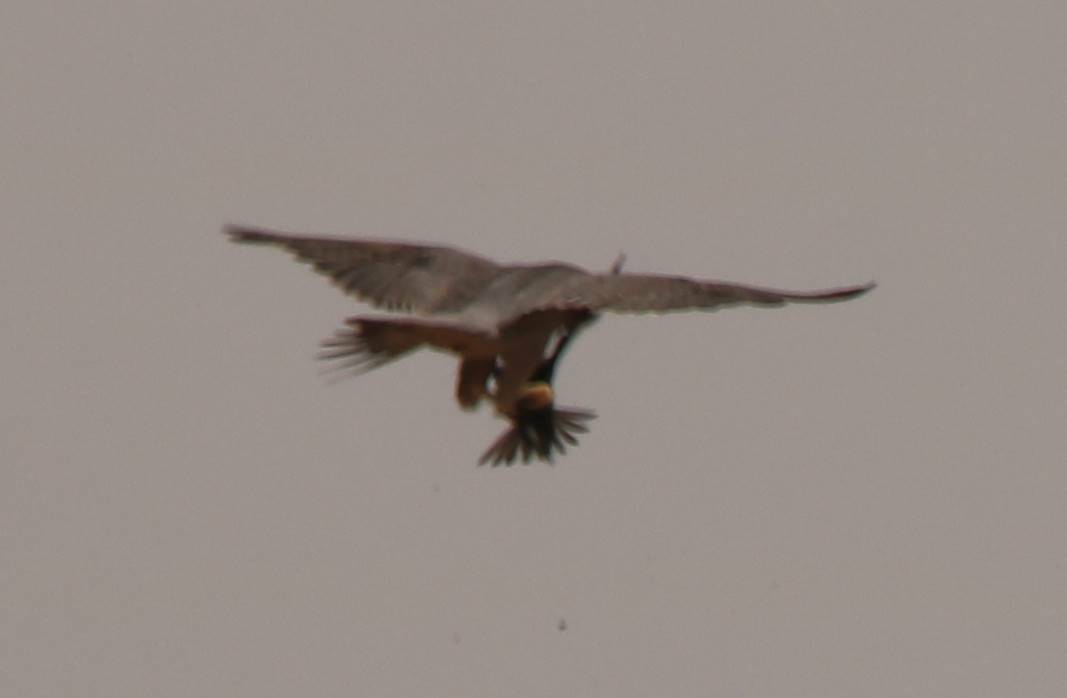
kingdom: Animalia
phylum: Chordata
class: Aves
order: Falconiformes
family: Falconidae
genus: Falco
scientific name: Falco biarmicus
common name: Lanner falcon
